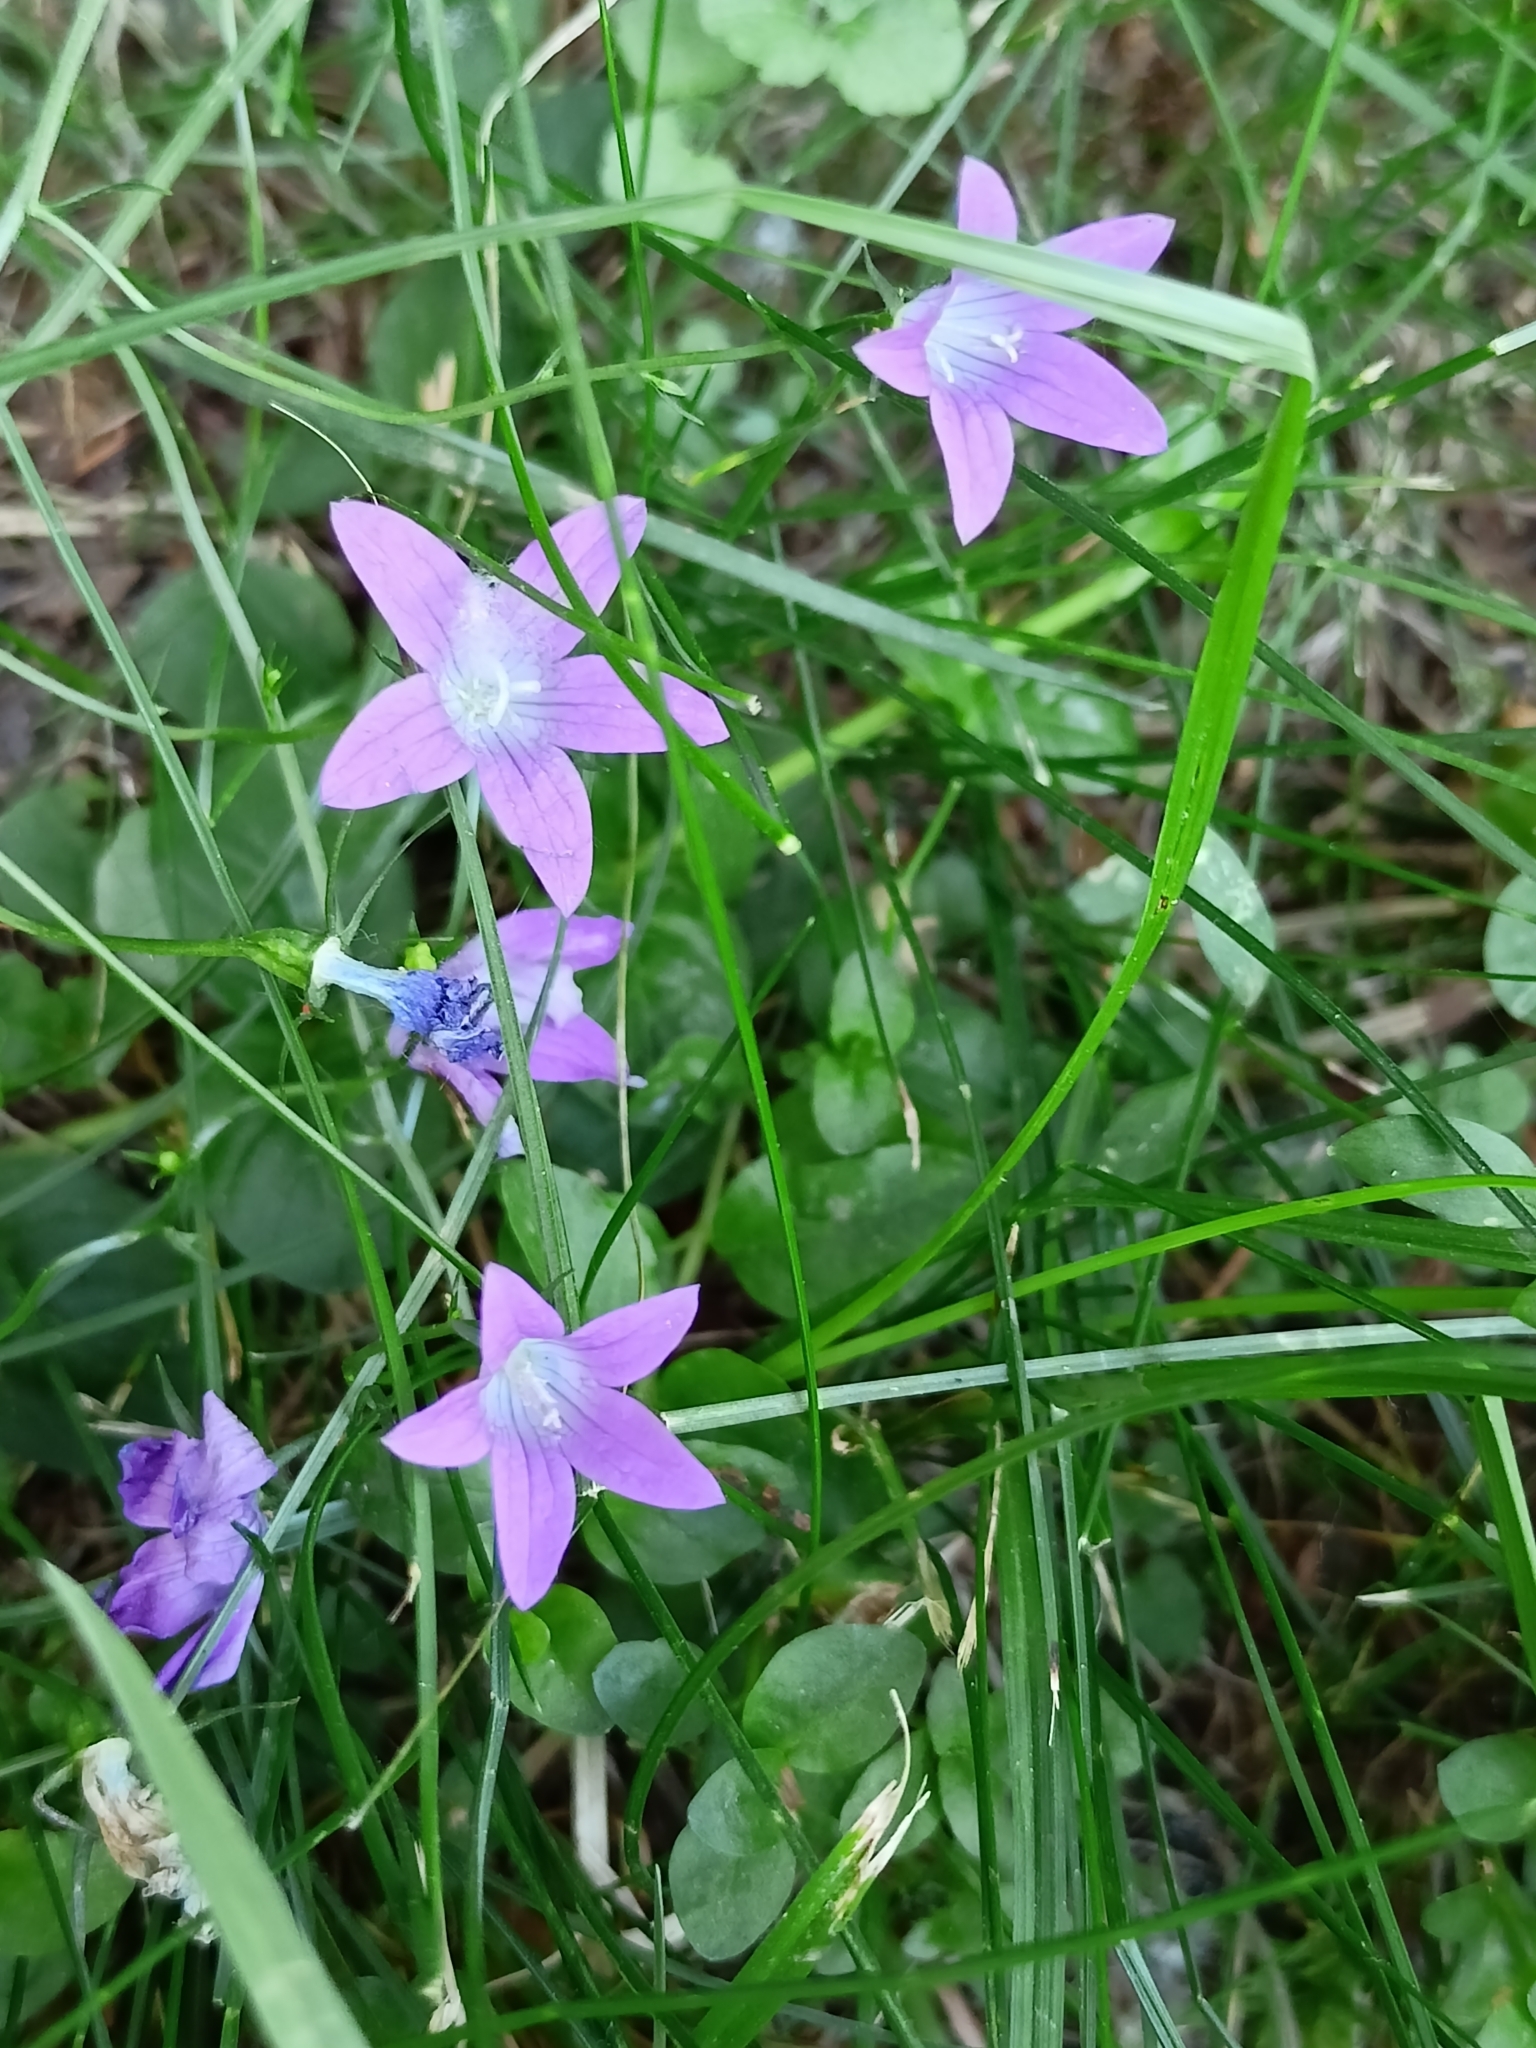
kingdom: Plantae
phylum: Tracheophyta
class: Magnoliopsida
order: Asterales
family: Campanulaceae
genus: Campanula
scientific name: Campanula patula
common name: Spreading bellflower
